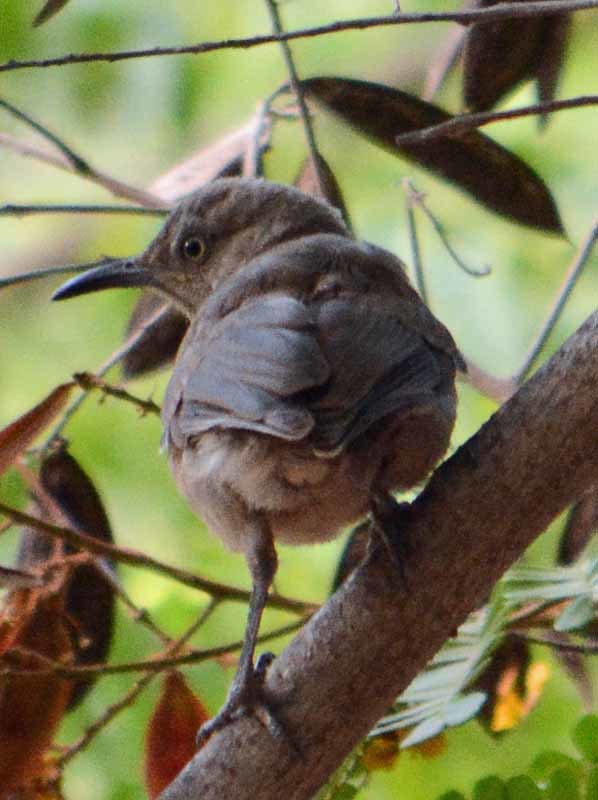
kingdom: Animalia
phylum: Chordata
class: Aves
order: Passeriformes
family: Mimidae
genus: Toxostoma
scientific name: Toxostoma curvirostre
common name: Curve-billed thrasher
